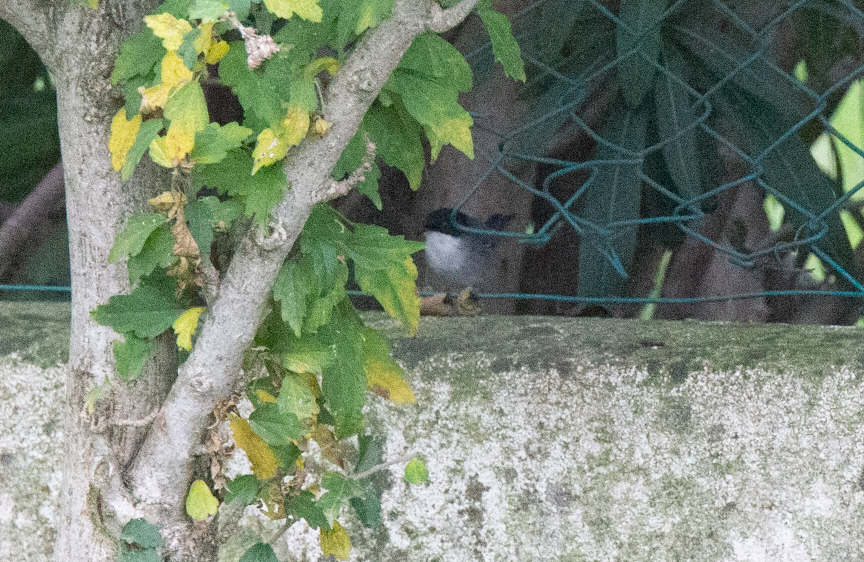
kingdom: Animalia
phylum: Chordata
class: Aves
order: Passeriformes
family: Sylviidae
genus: Curruca
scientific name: Curruca melanocephala
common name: Sardinian warbler
